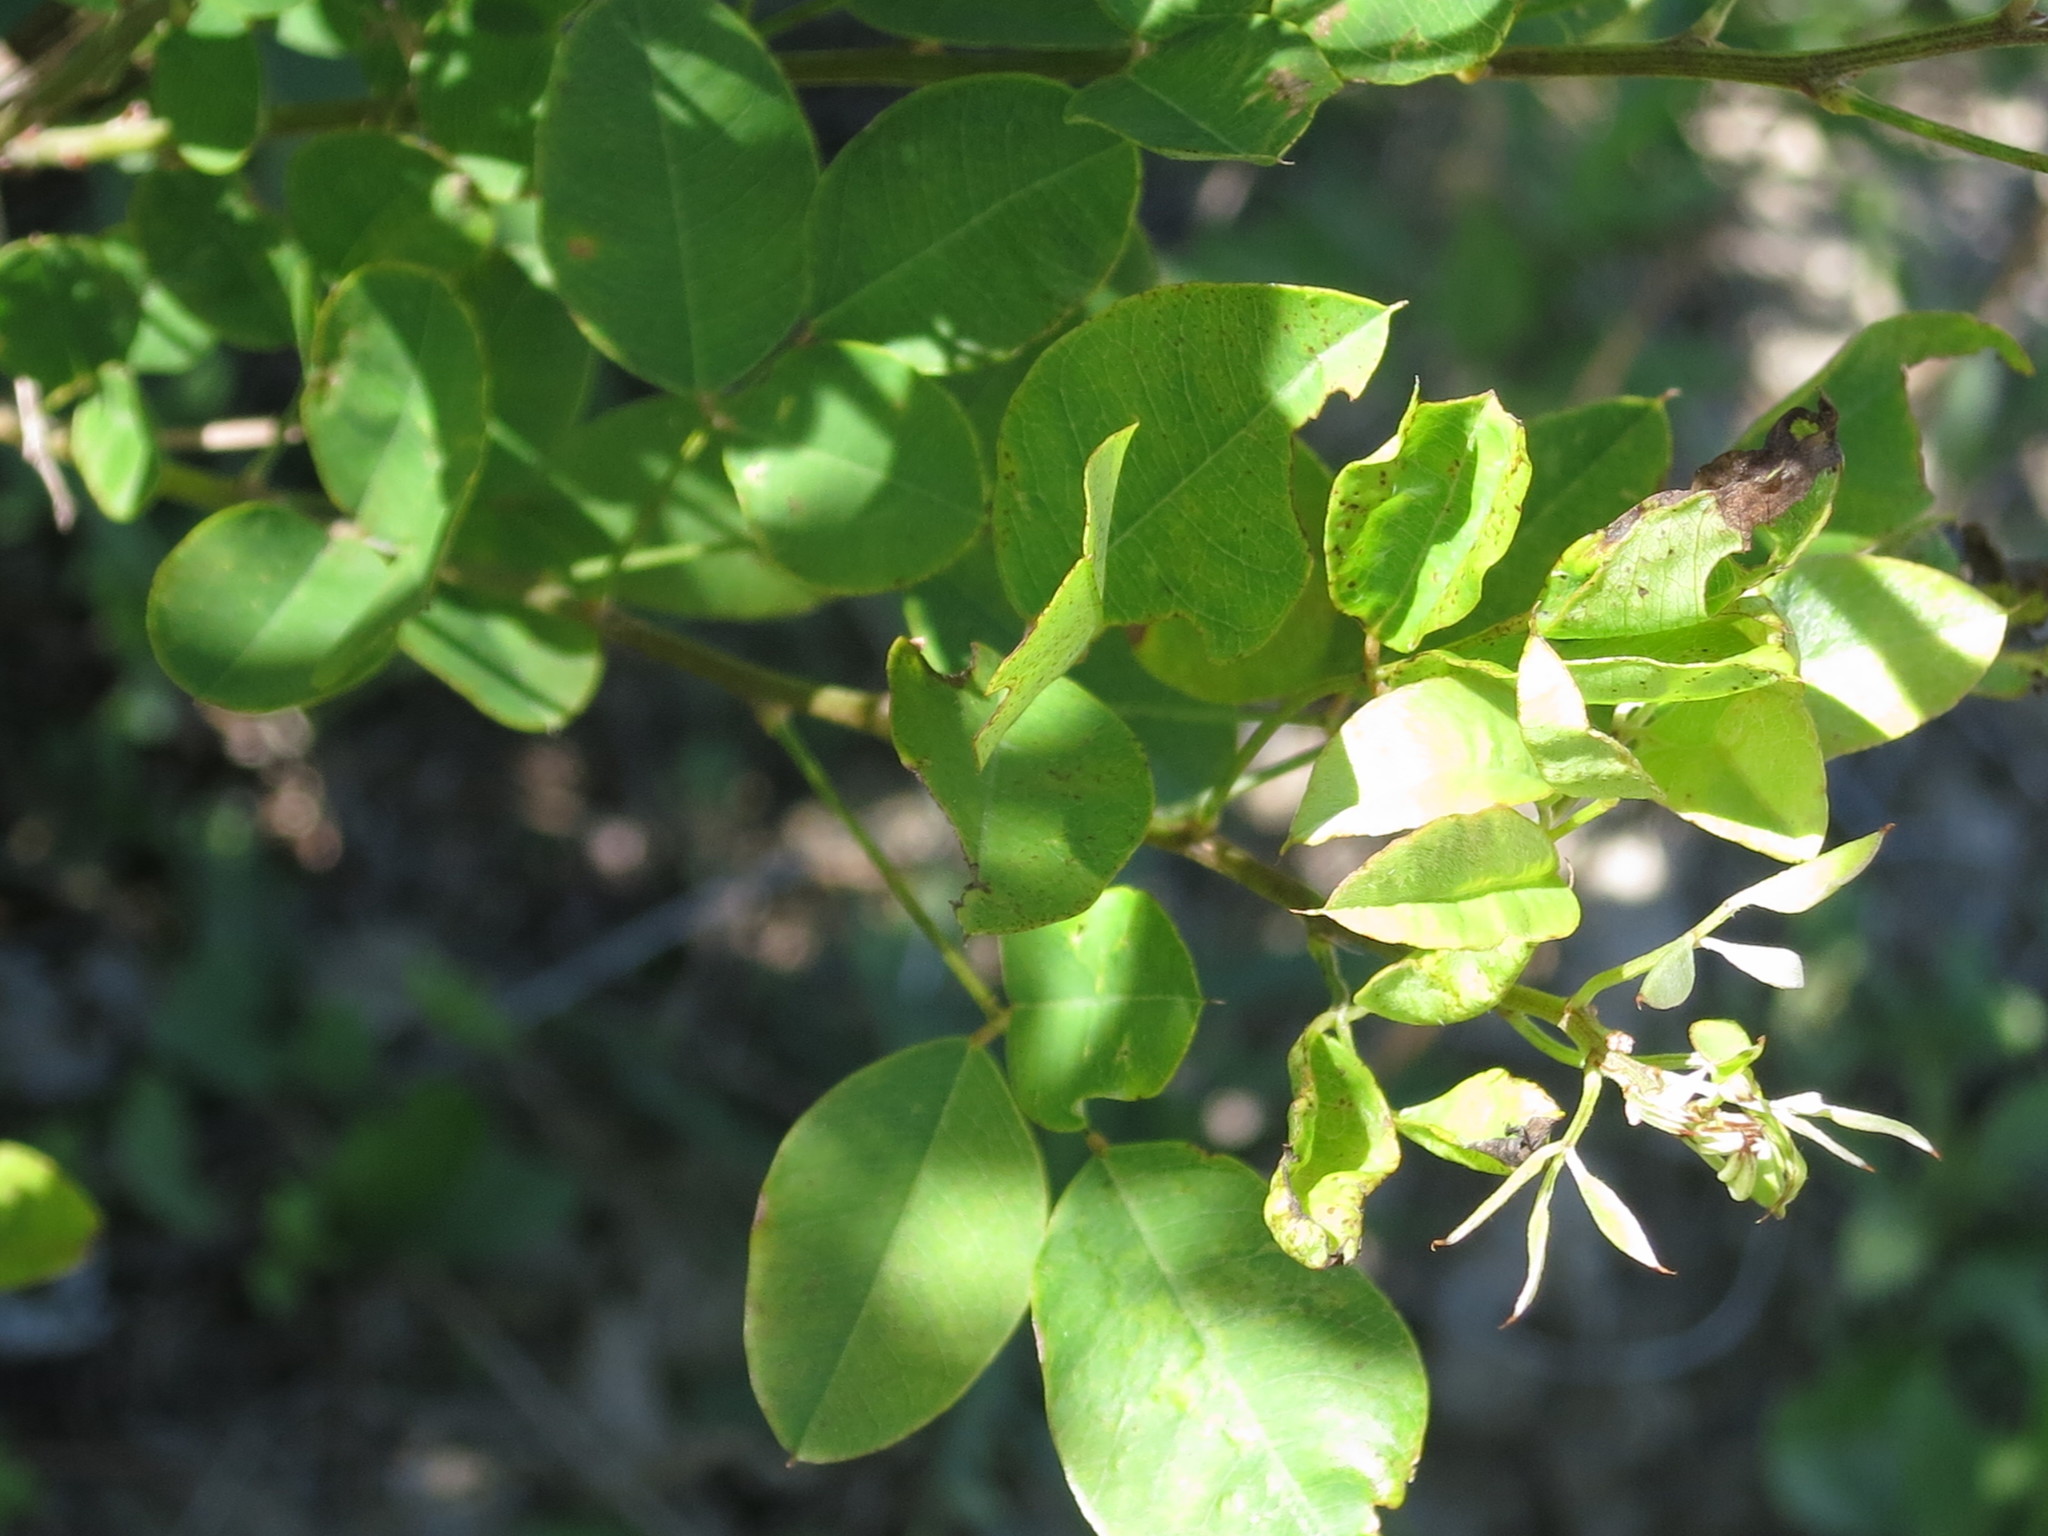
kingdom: Plantae
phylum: Tracheophyta
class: Magnoliopsida
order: Fabales
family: Fabaceae
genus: Lespedeza
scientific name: Lespedeza bicolor
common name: Shrub lespedeza
